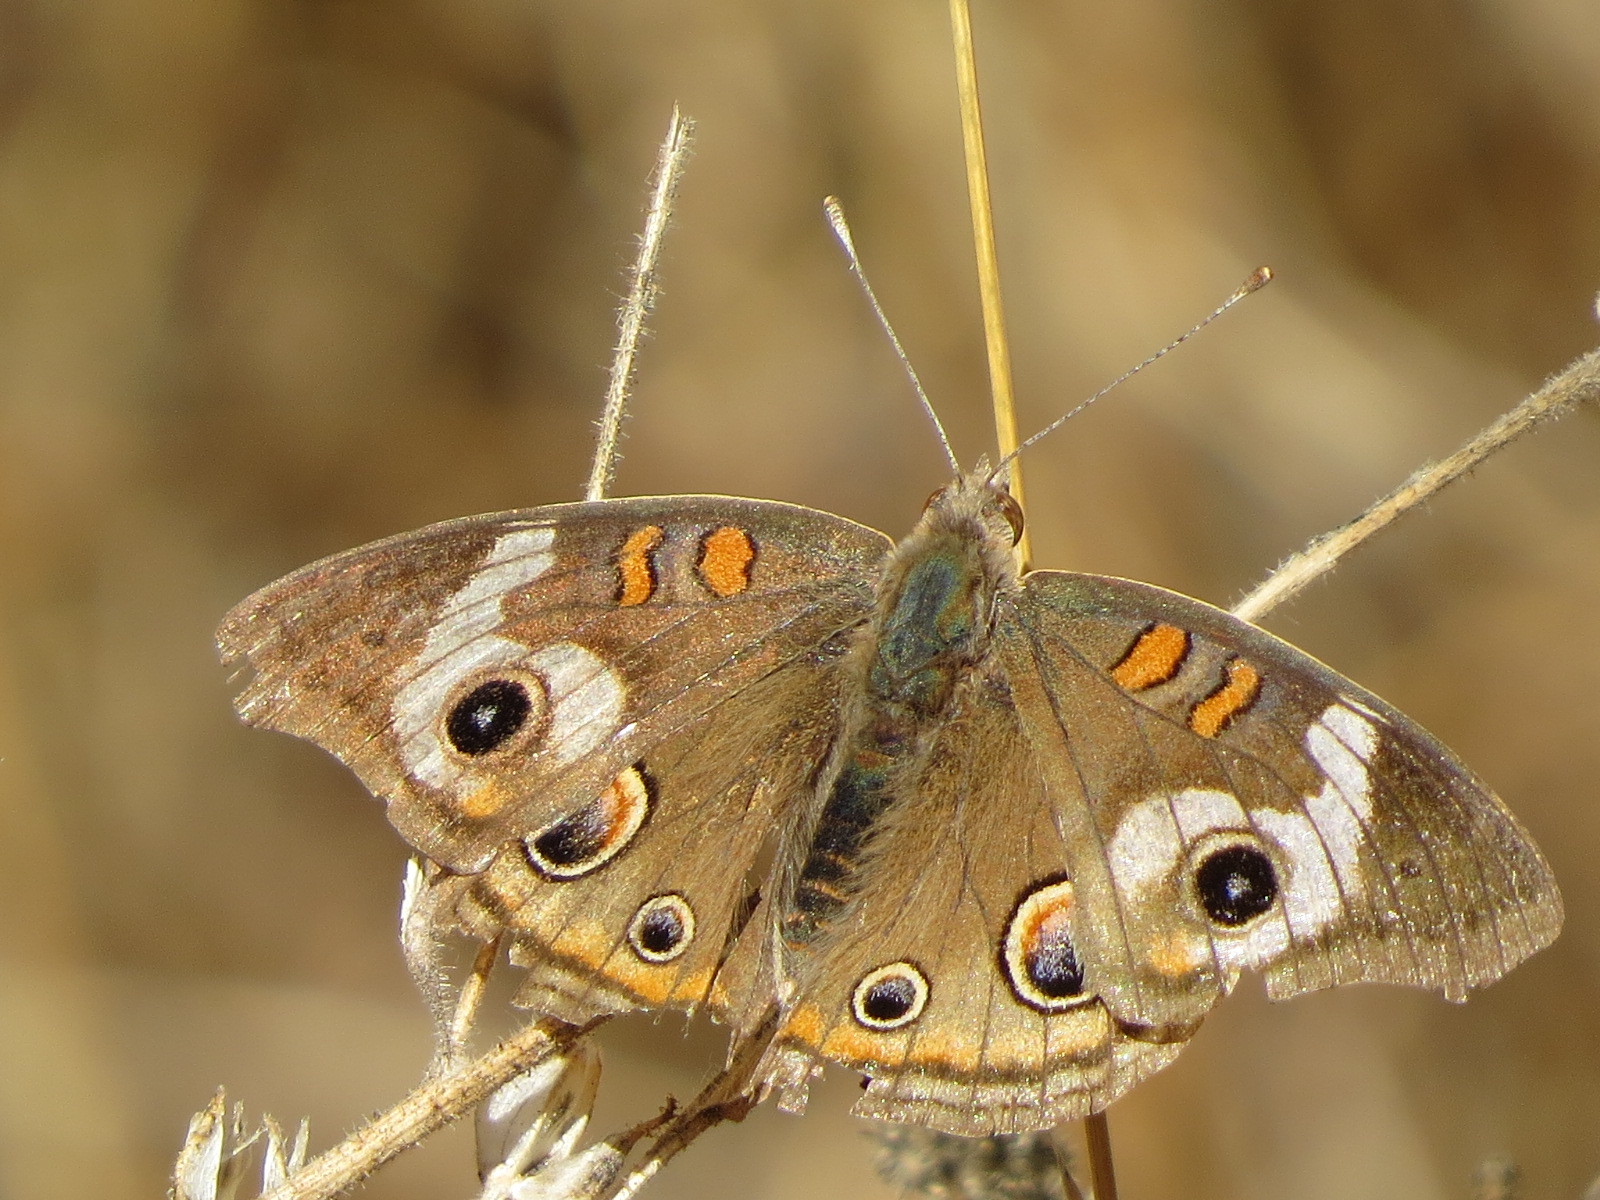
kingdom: Animalia
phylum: Arthropoda
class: Insecta
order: Lepidoptera
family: Nymphalidae
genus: Junonia
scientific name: Junonia grisea
